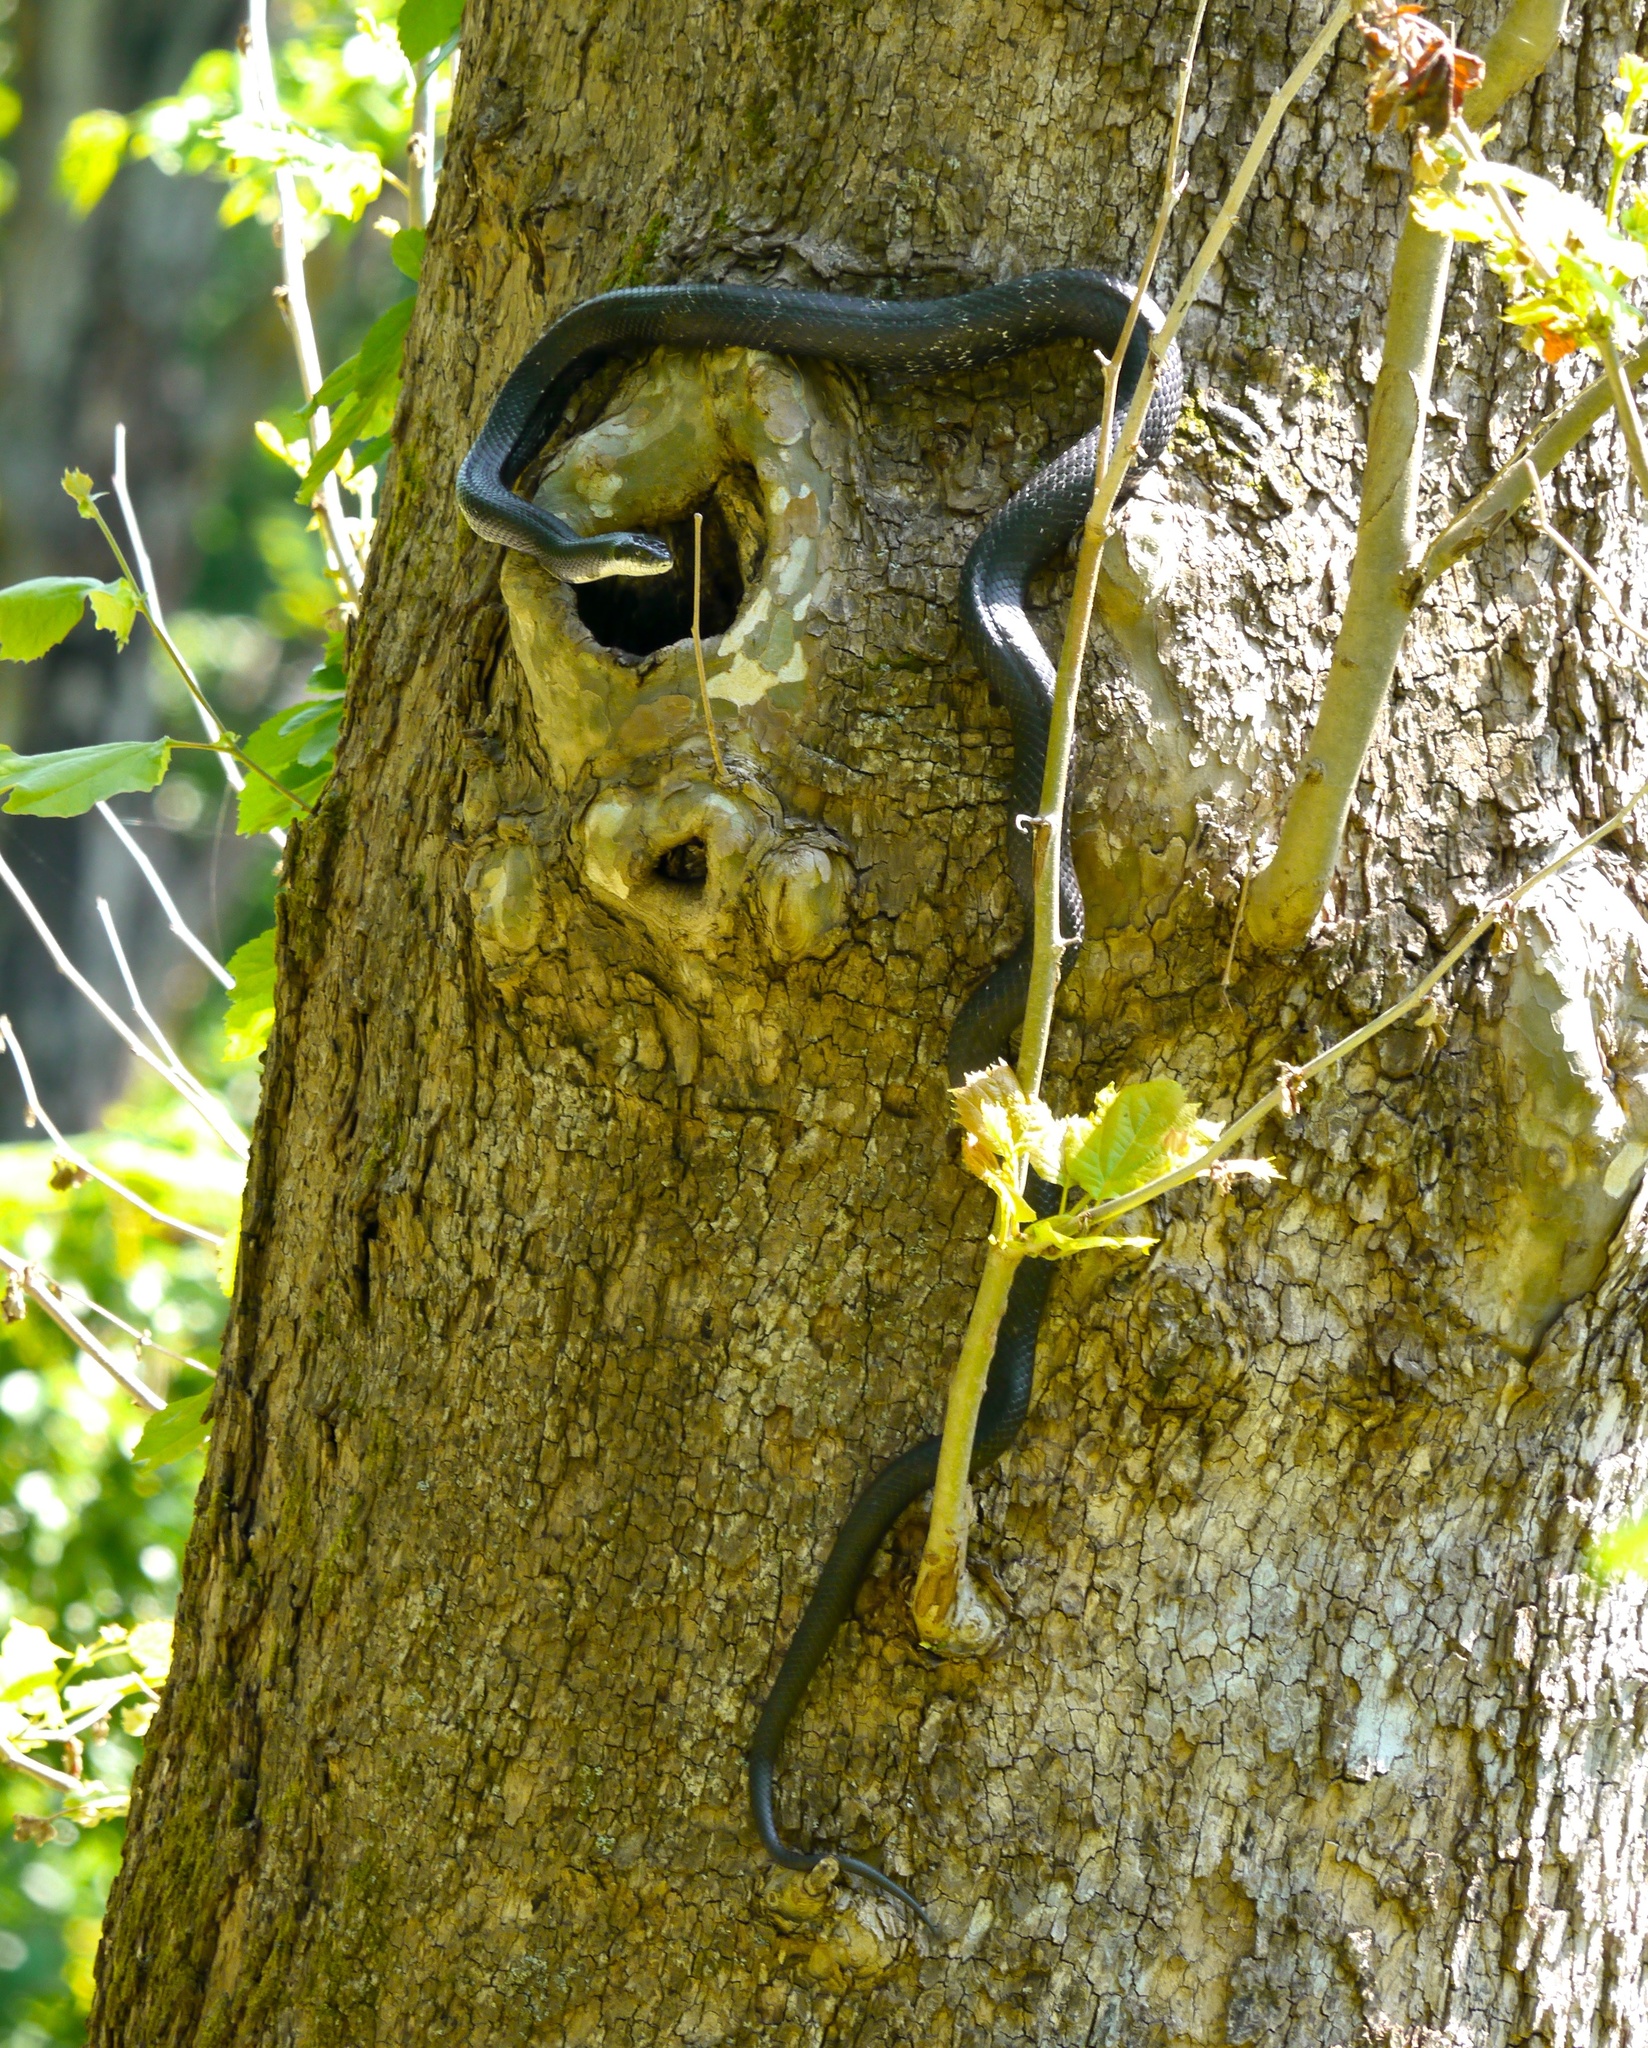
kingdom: Animalia
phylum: Chordata
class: Squamata
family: Colubridae
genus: Pantherophis
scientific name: Pantherophis alleghaniensis
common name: Eastern rat snake
